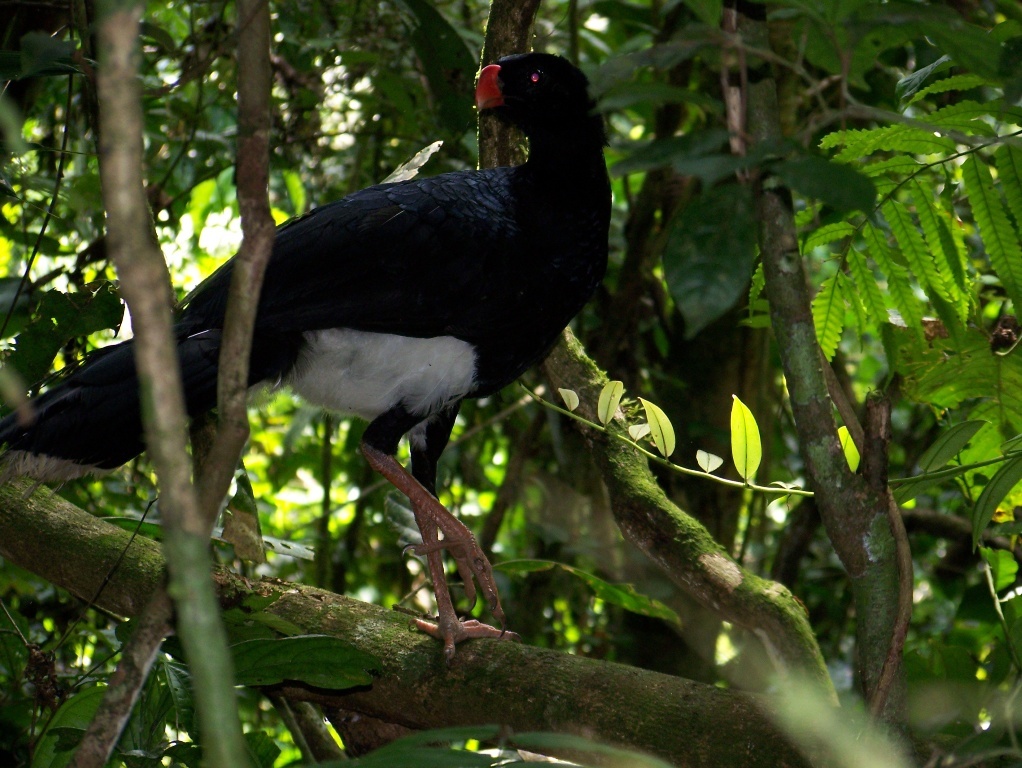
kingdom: Animalia
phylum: Chordata
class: Aves
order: Galliformes
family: Cracidae
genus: Mitu
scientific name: Mitu salvini
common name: Salvin's curassow
